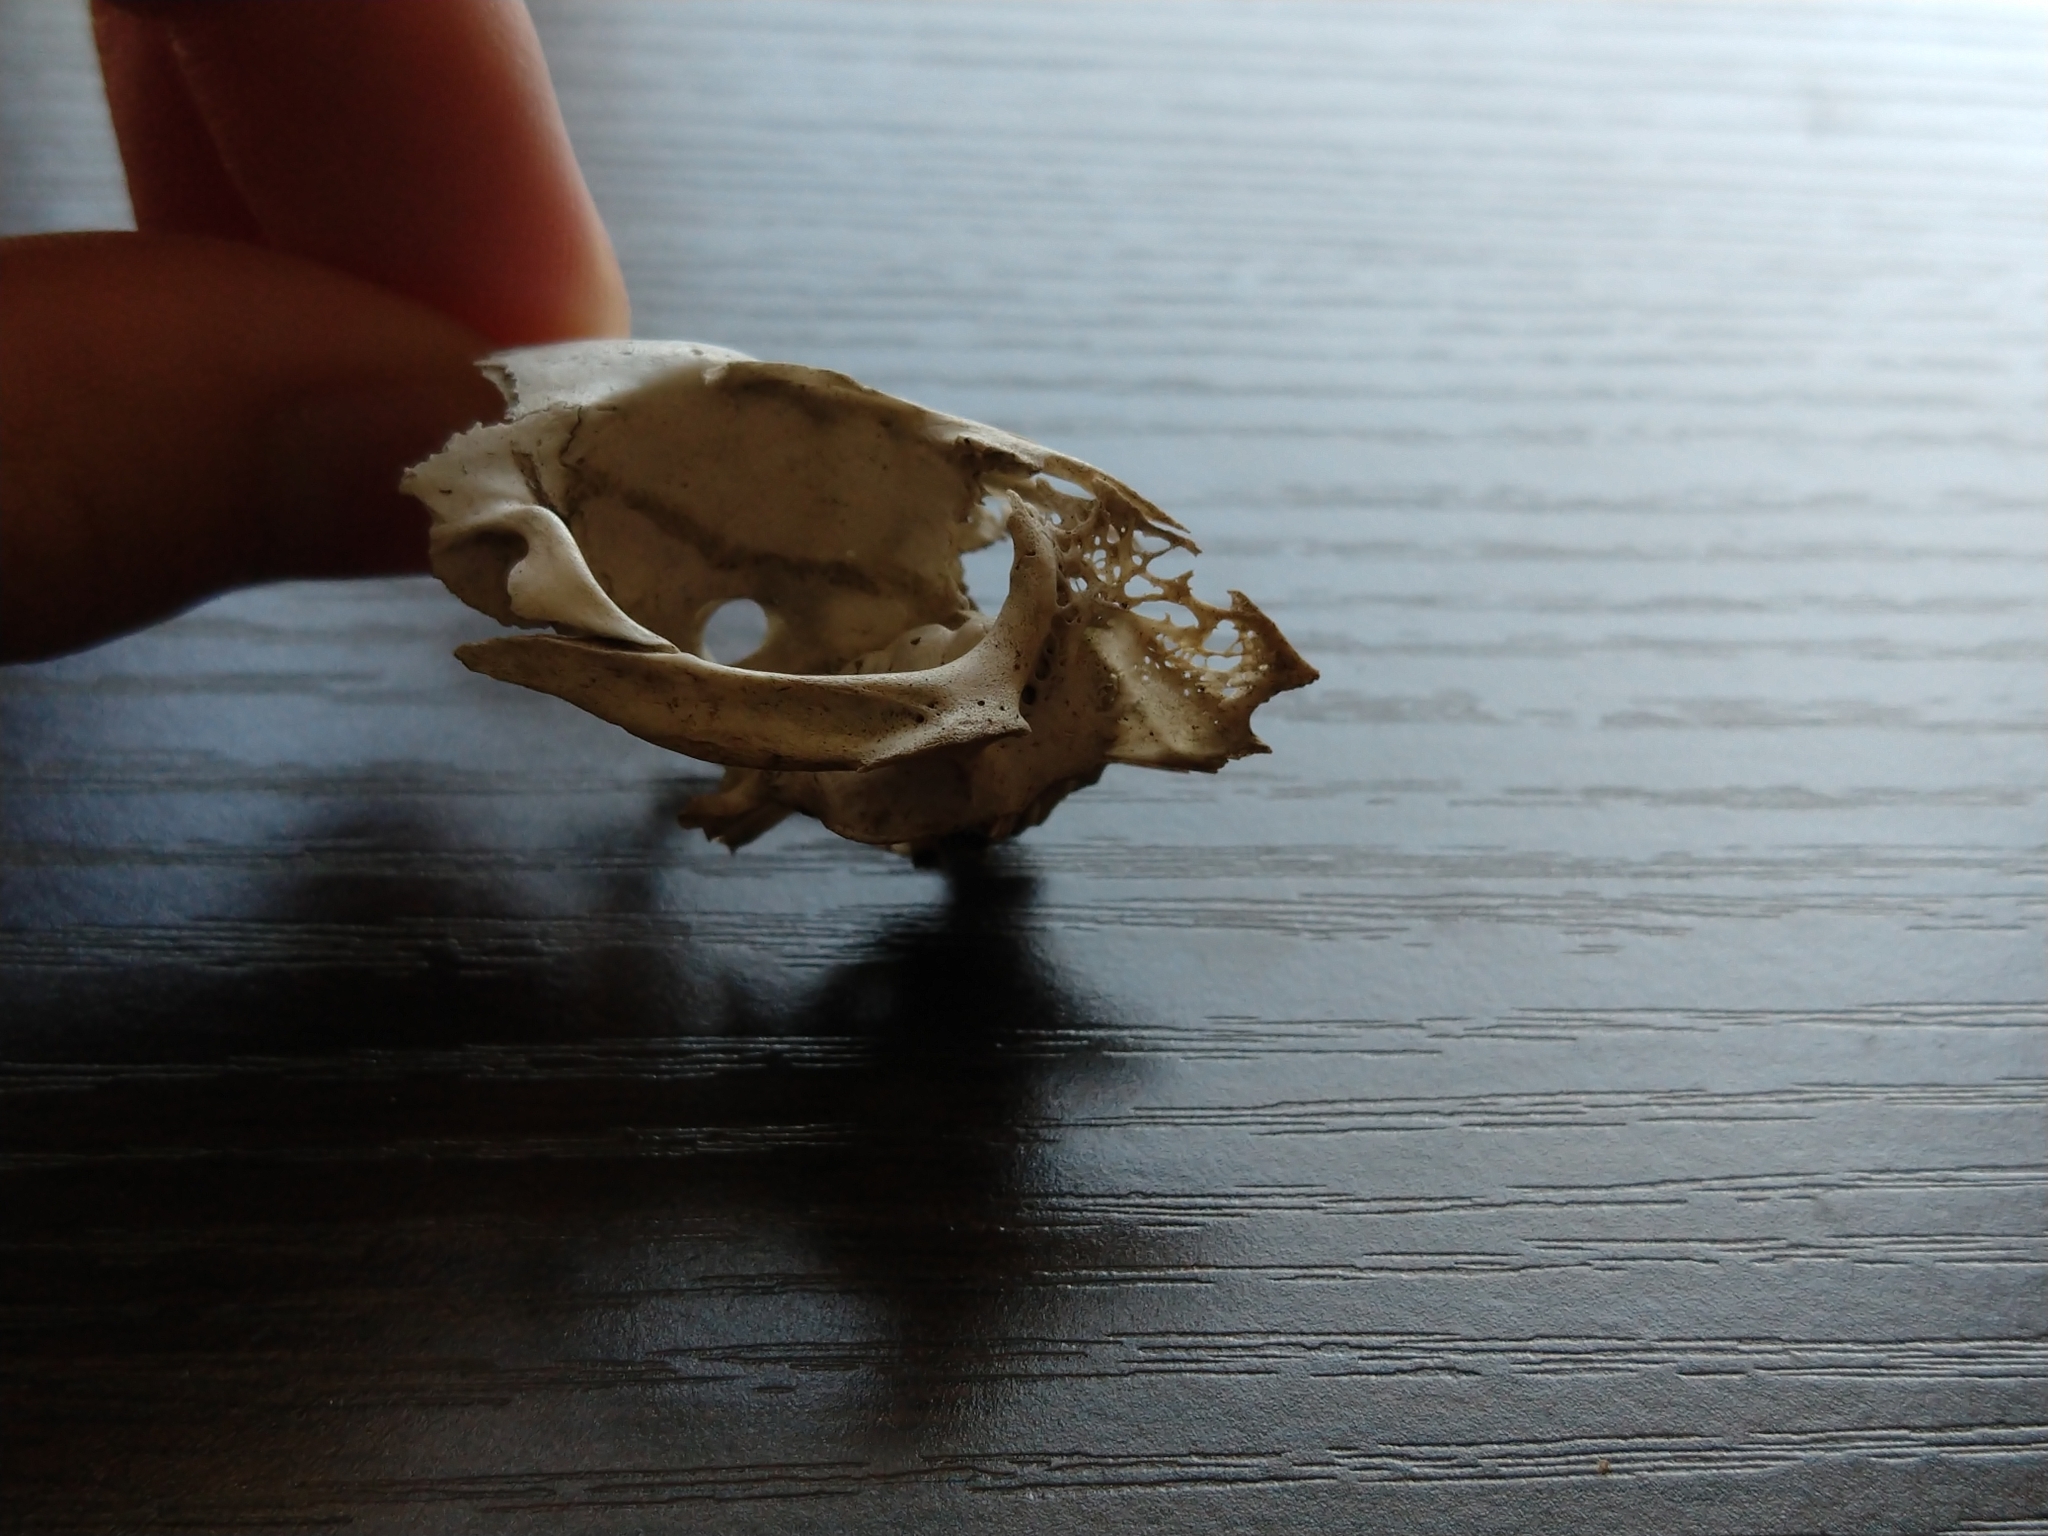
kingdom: Animalia
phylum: Chordata
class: Mammalia
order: Lagomorpha
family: Leporidae
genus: Sylvilagus
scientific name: Sylvilagus floridanus
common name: Eastern cottontail
